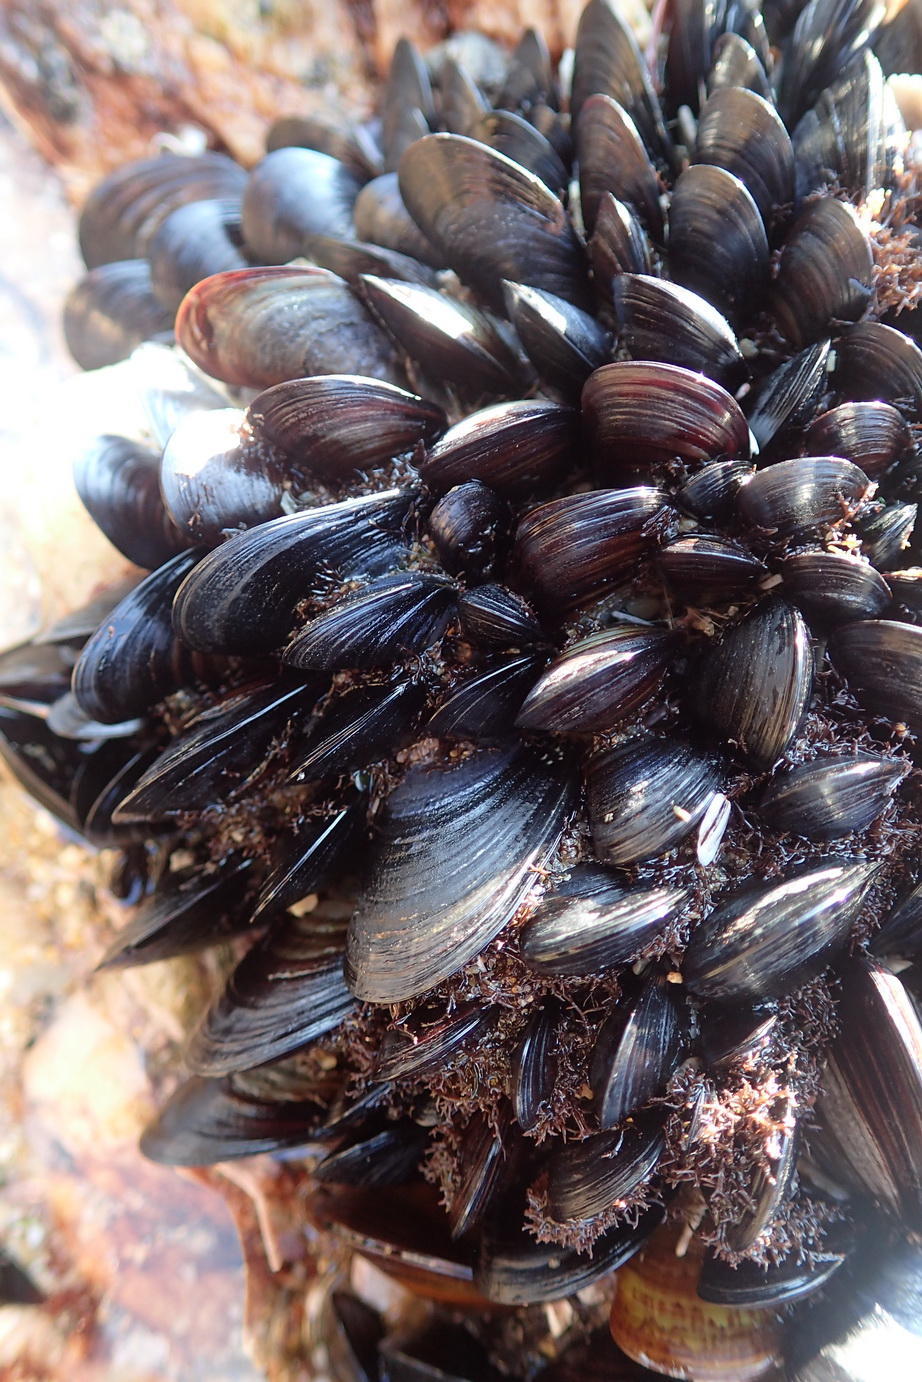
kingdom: Animalia
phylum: Mollusca
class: Bivalvia
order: Mytilida
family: Mytilidae
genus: Mytilus
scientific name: Mytilus galloprovincialis
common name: Mediterranean mussel
